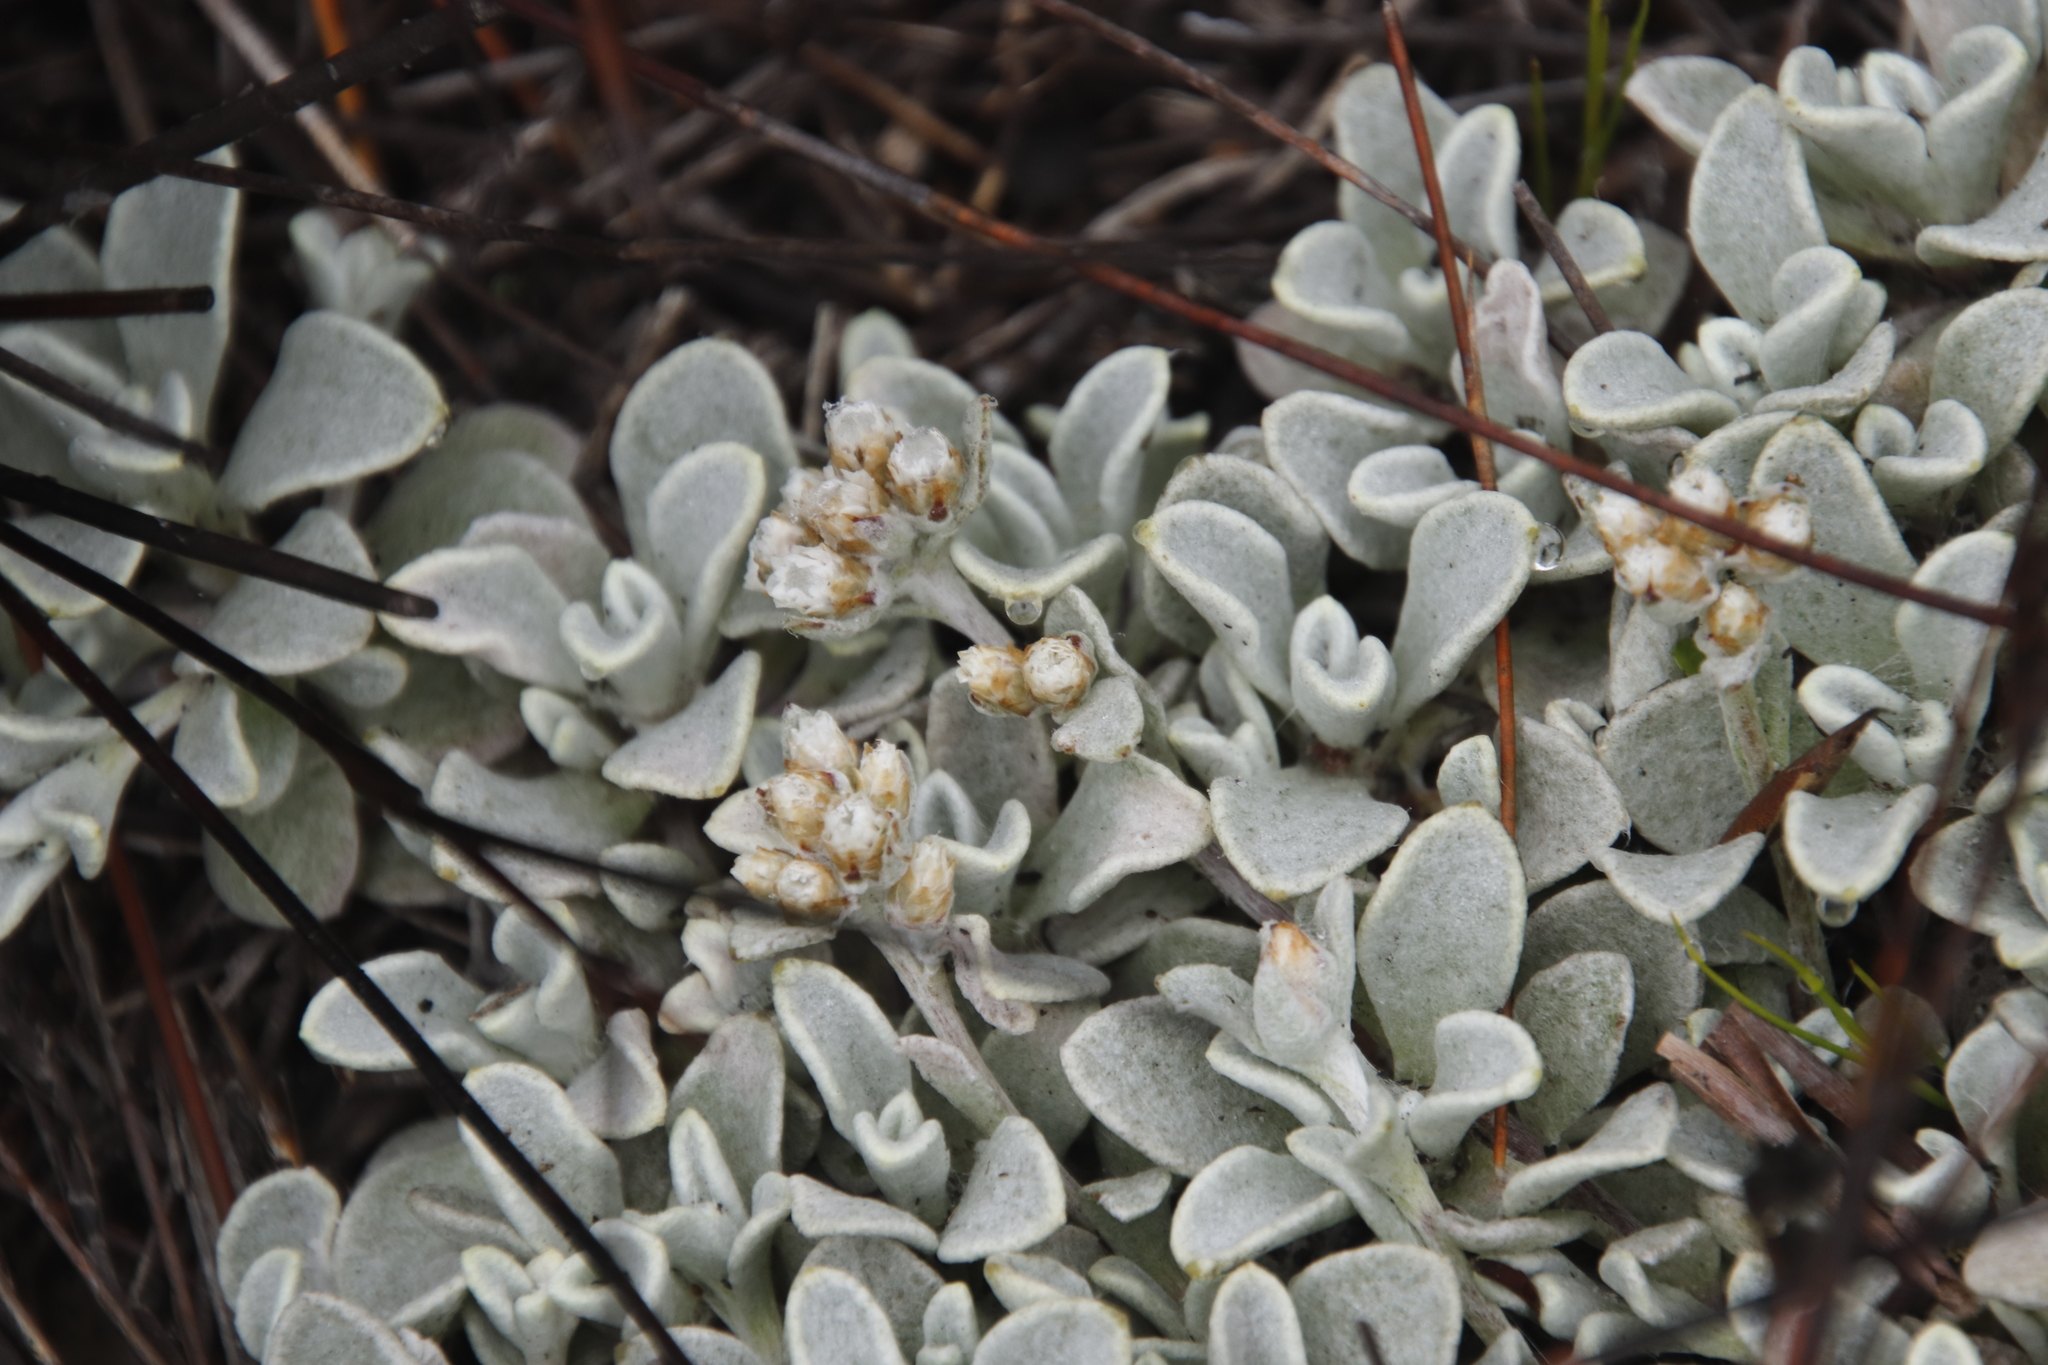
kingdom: Plantae
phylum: Tracheophyta
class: Magnoliopsida
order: Asterales
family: Asteraceae
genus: Helichrysum
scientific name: Helichrysum diffusum
